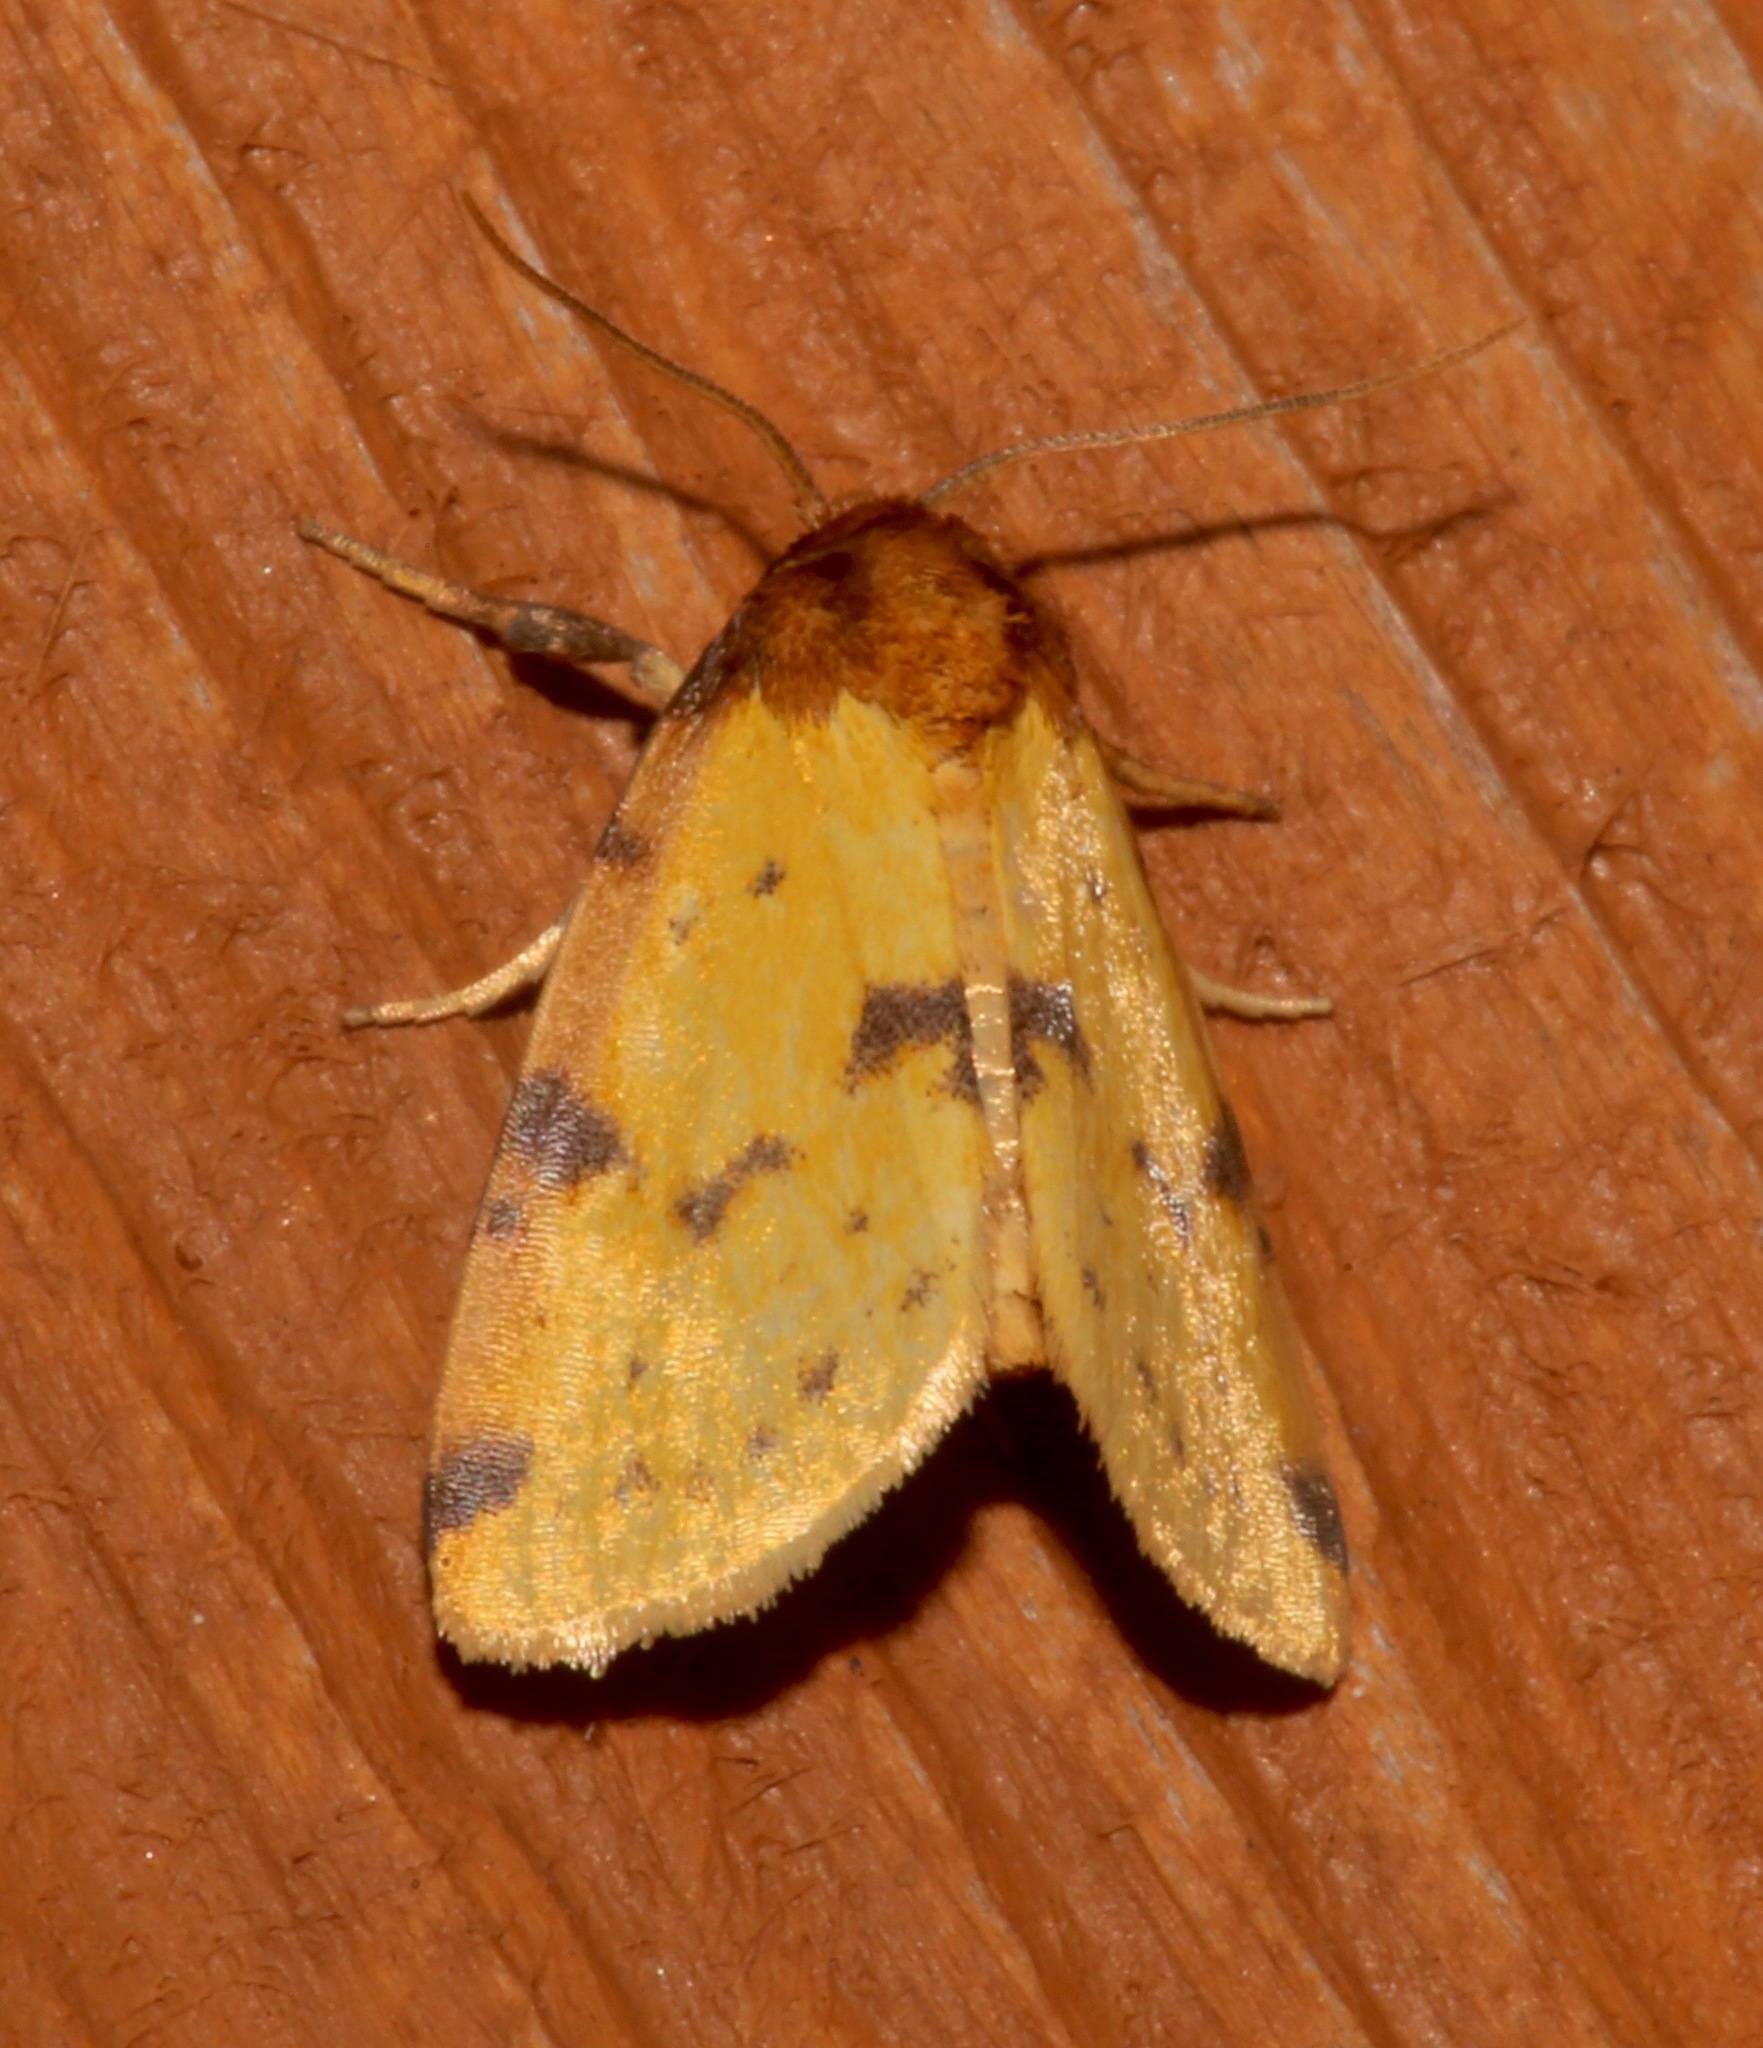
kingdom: Animalia
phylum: Arthropoda
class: Insecta
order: Lepidoptera
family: Noctuidae
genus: Azenia
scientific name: Azenia obtusa
